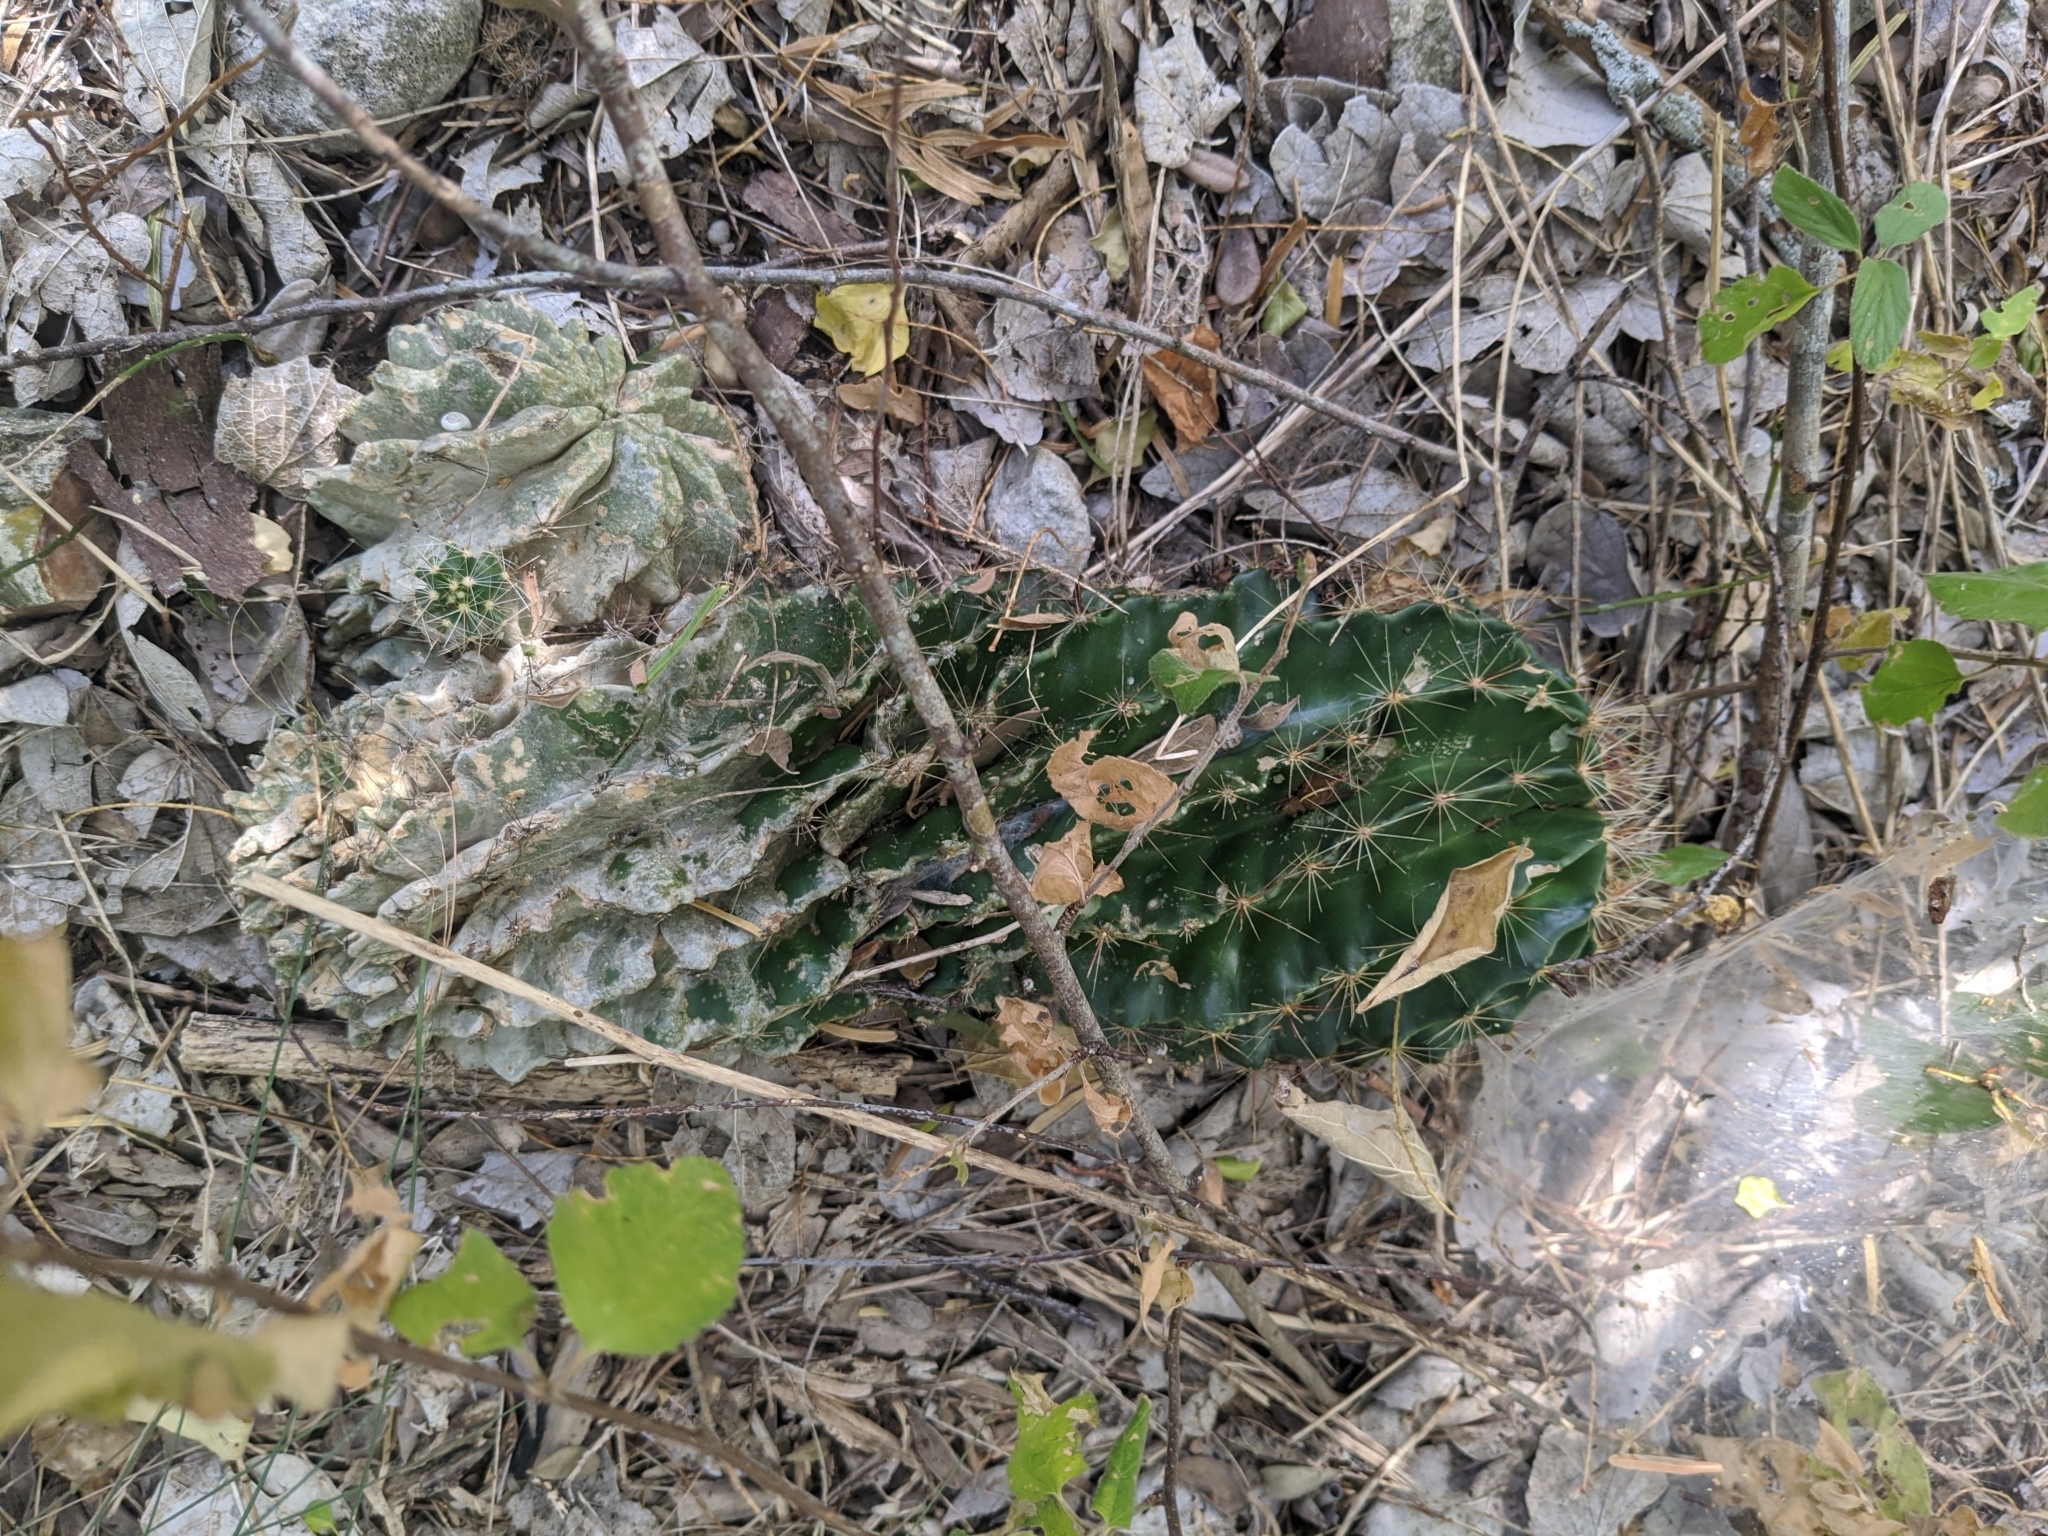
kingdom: Plantae
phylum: Tracheophyta
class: Magnoliopsida
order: Caryophyllales
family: Cactaceae
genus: Thelocactus
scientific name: Thelocactus setispinus
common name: Miniature barrel cactus
